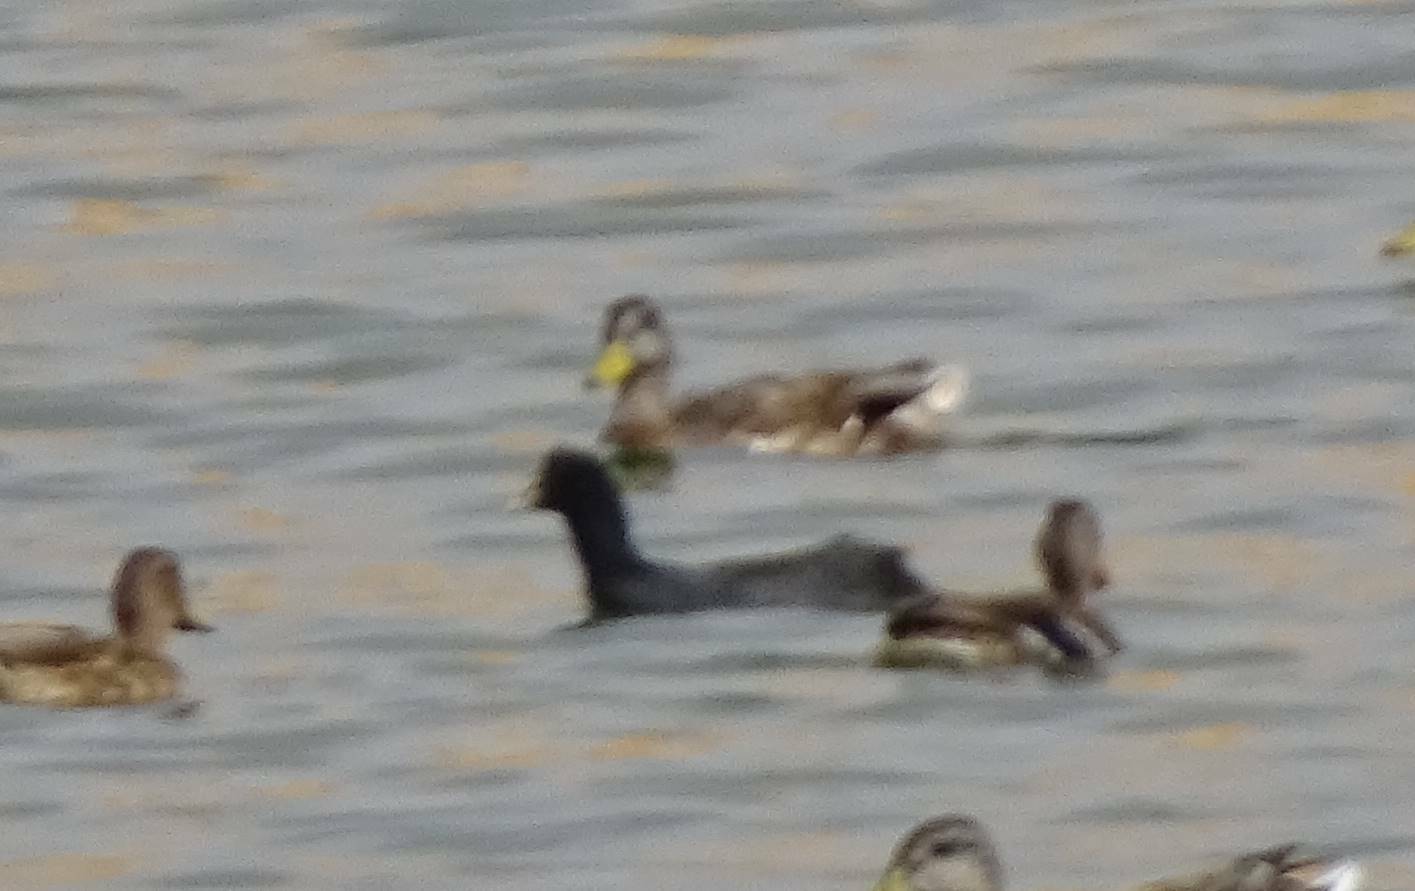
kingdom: Animalia
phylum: Chordata
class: Aves
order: Anseriformes
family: Anatidae
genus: Anas
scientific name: Anas platyrhynchos
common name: Mallard
